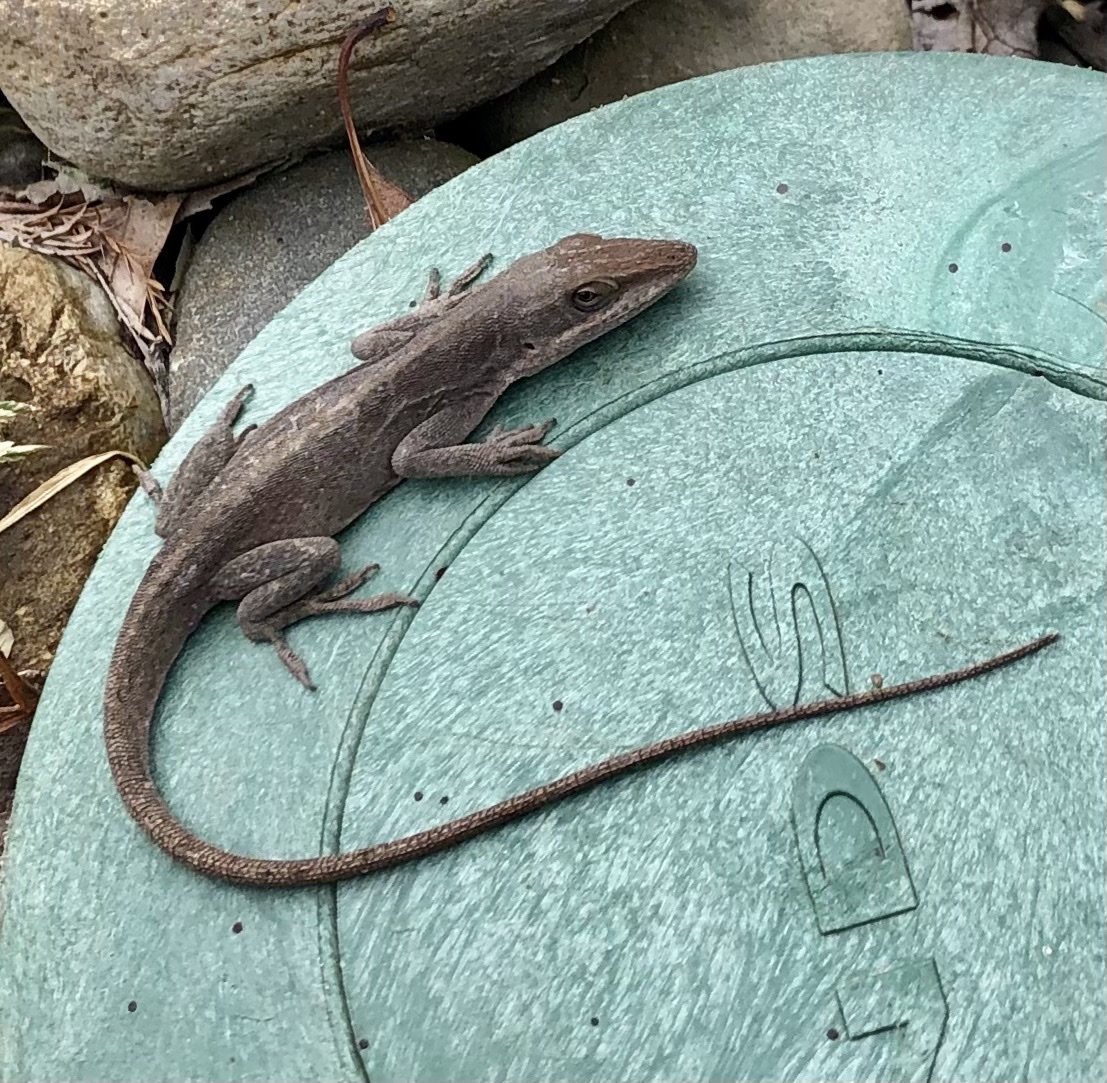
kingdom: Animalia
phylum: Chordata
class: Squamata
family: Dactyloidae
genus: Anolis
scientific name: Anolis carolinensis
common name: Green anole
